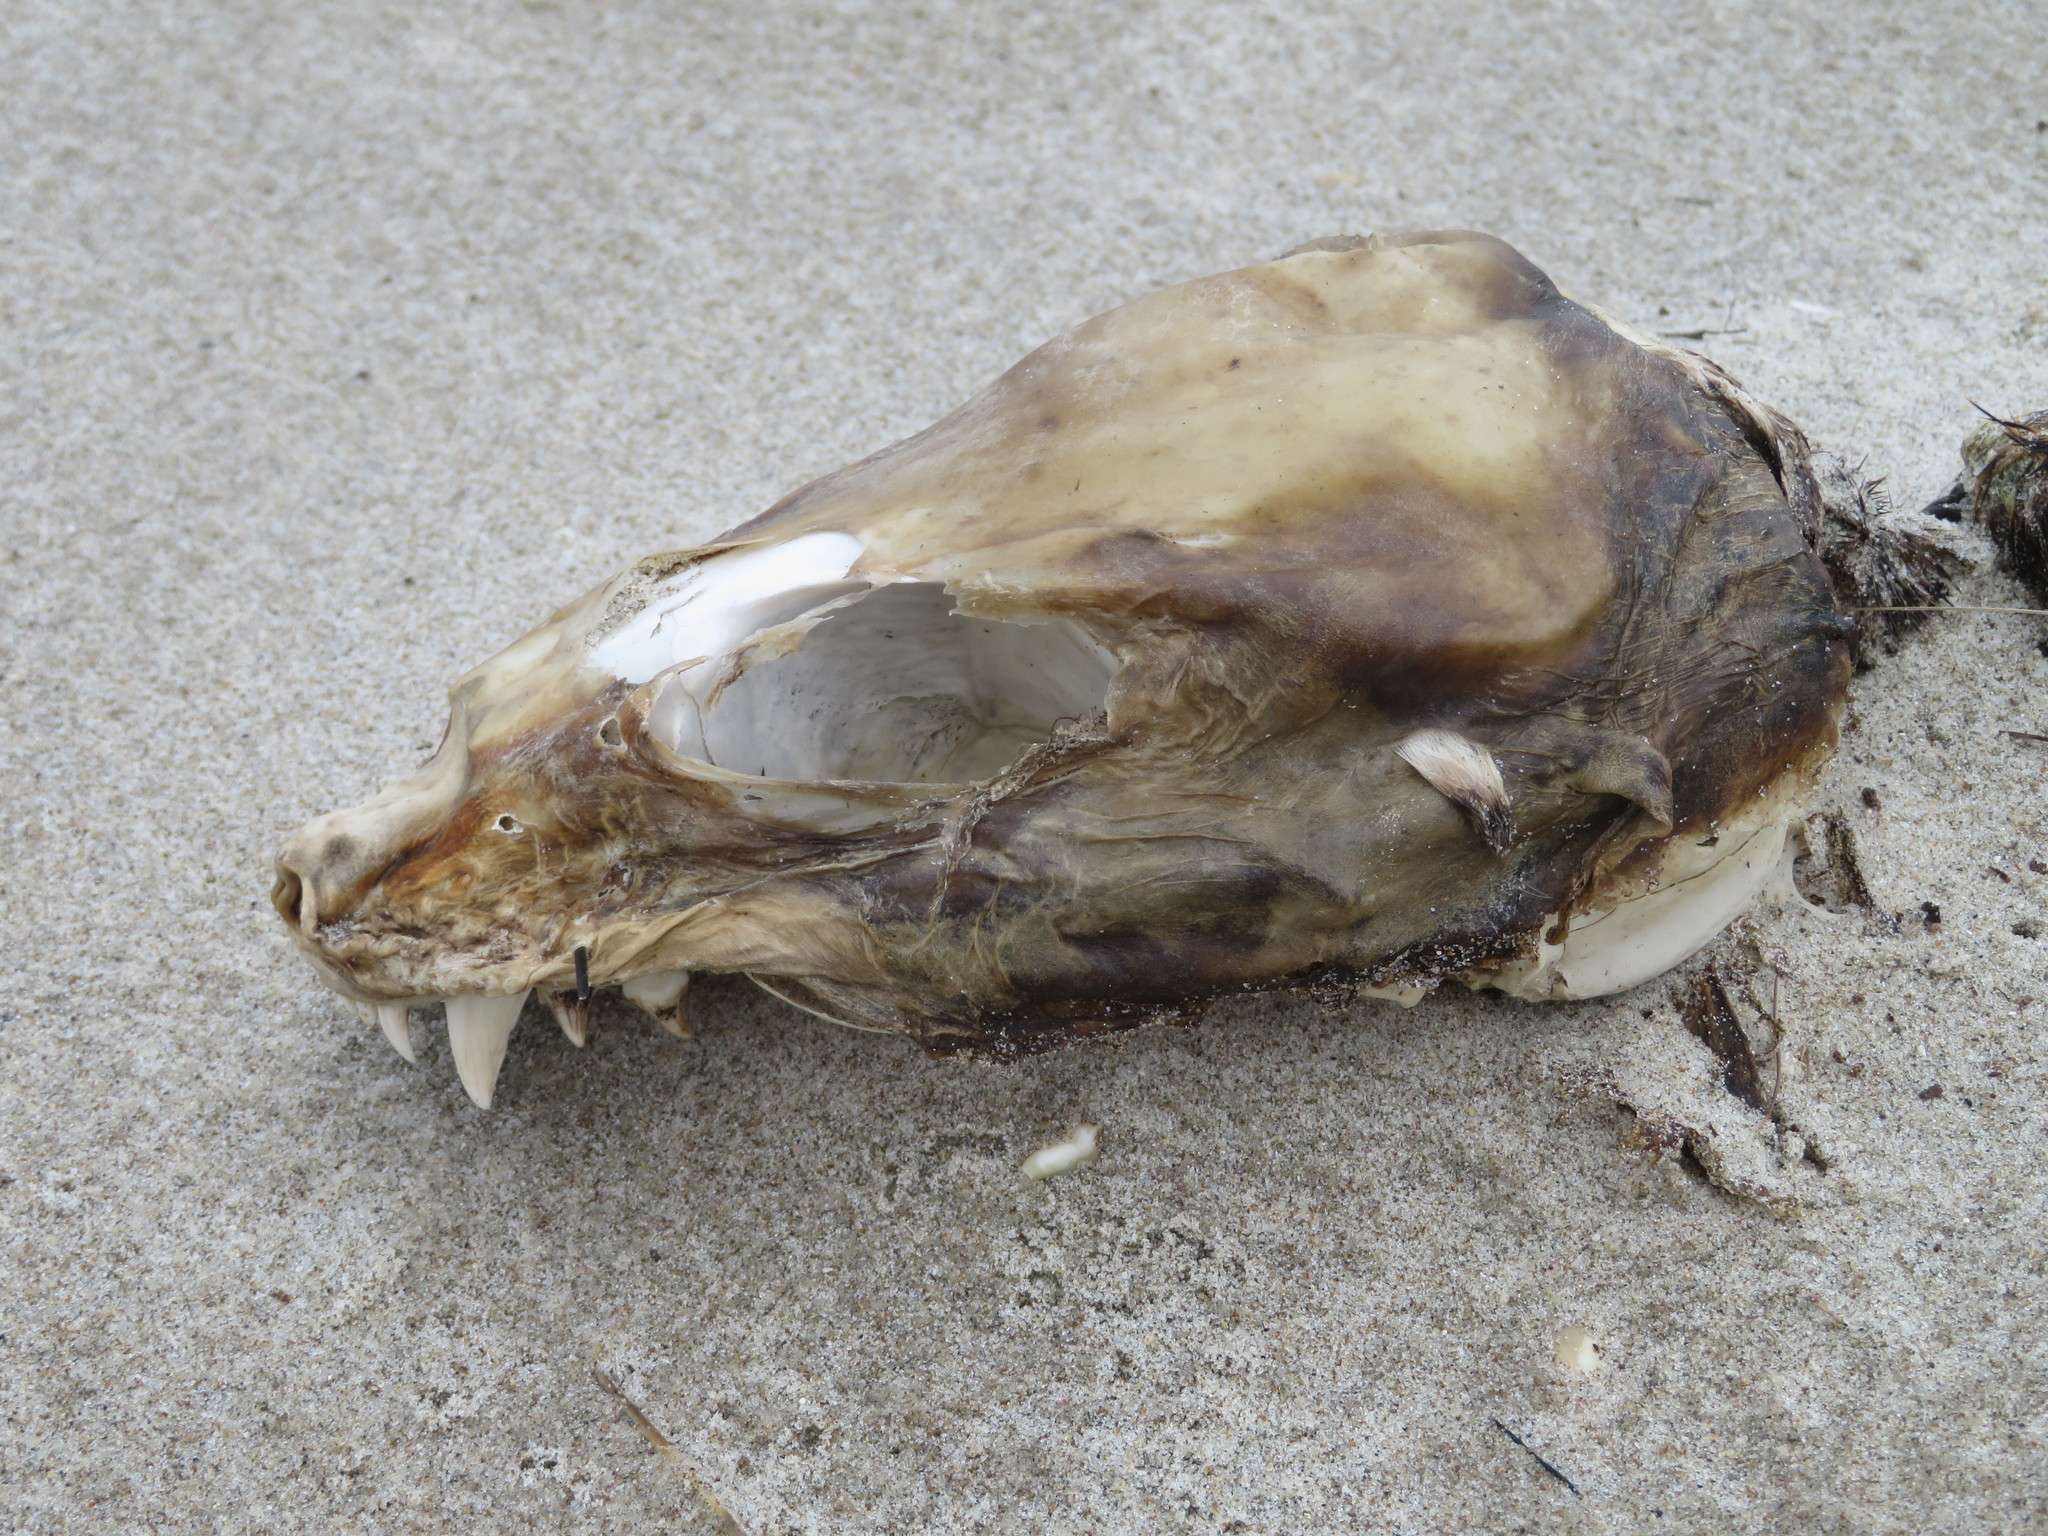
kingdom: Animalia
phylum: Chordata
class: Mammalia
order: Carnivora
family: Otariidae
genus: Arctocephalus
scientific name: Arctocephalus forsteri
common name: New zealand fur seal
